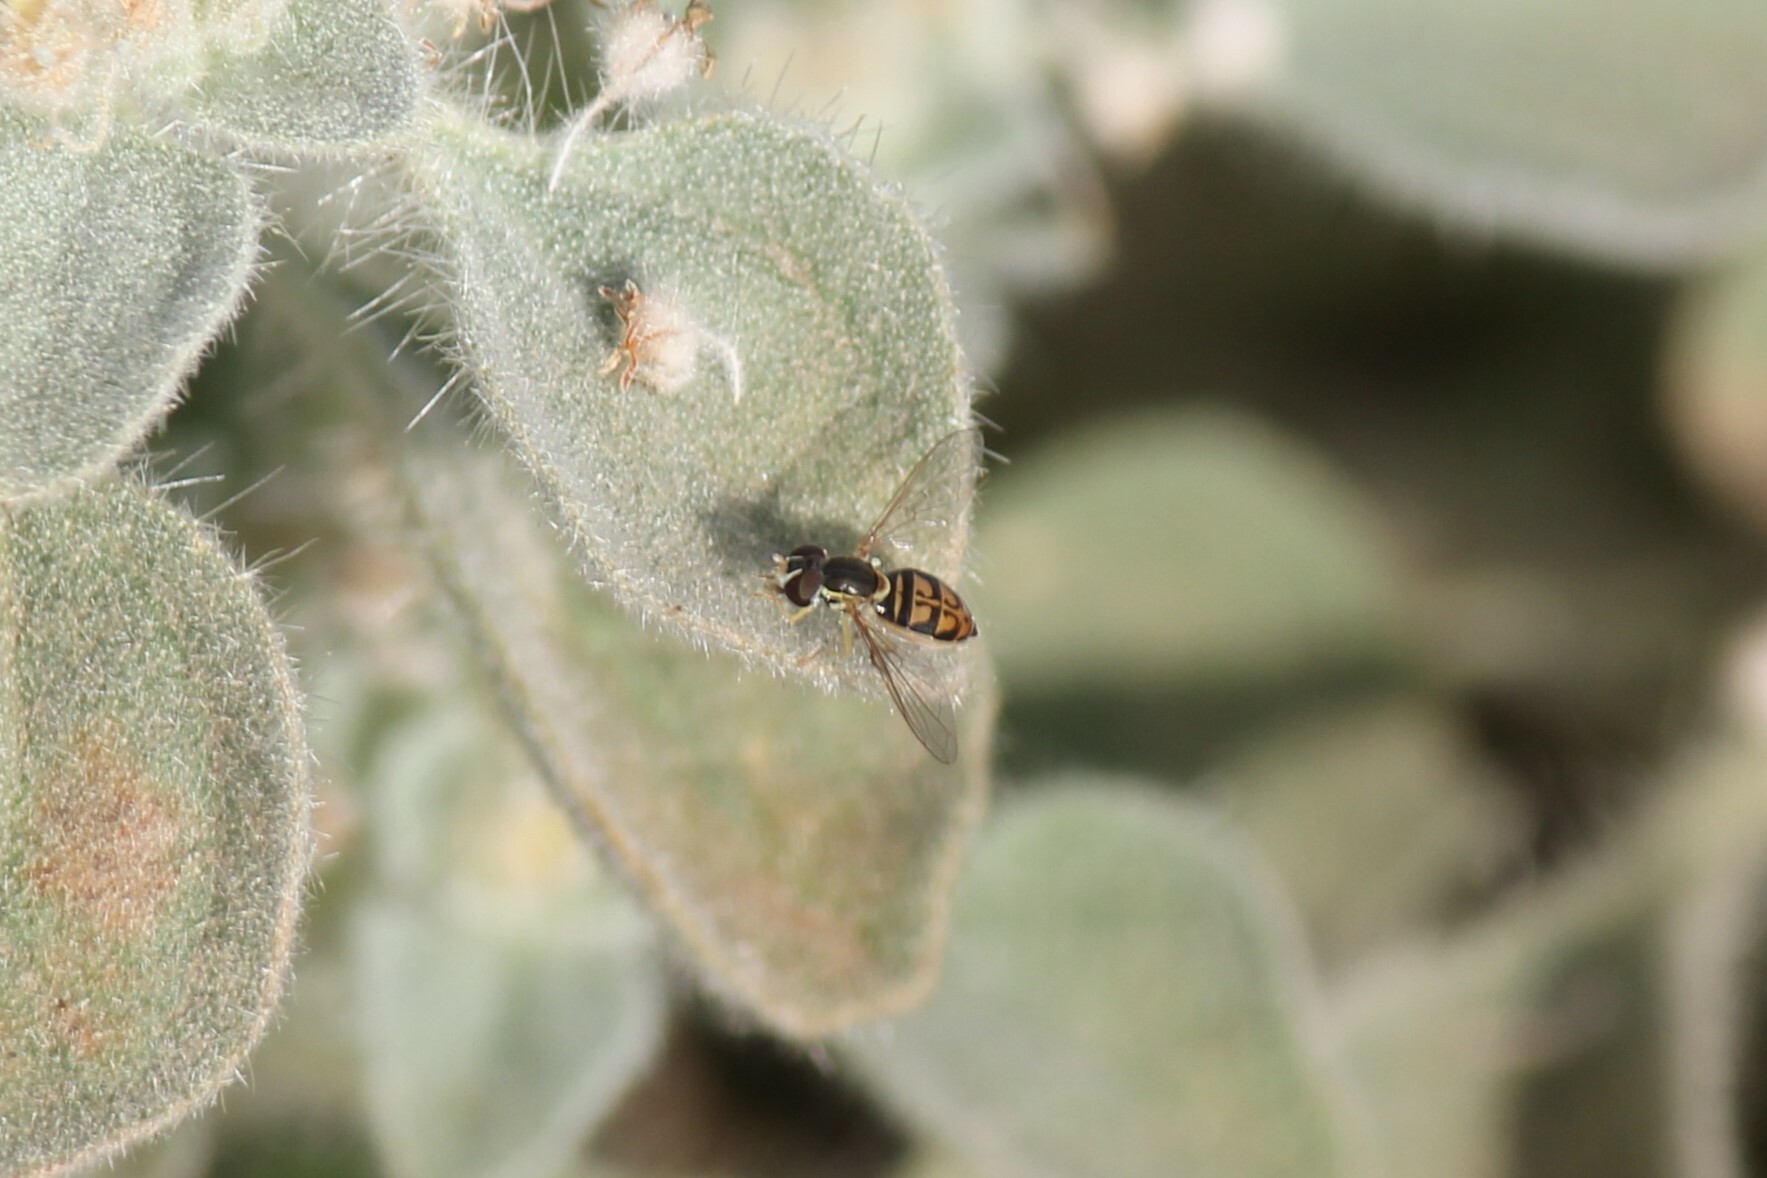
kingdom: Animalia
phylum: Arthropoda
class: Insecta
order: Diptera
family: Syrphidae
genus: Toxomerus
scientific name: Toxomerus marginatus
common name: Syrphid fly
